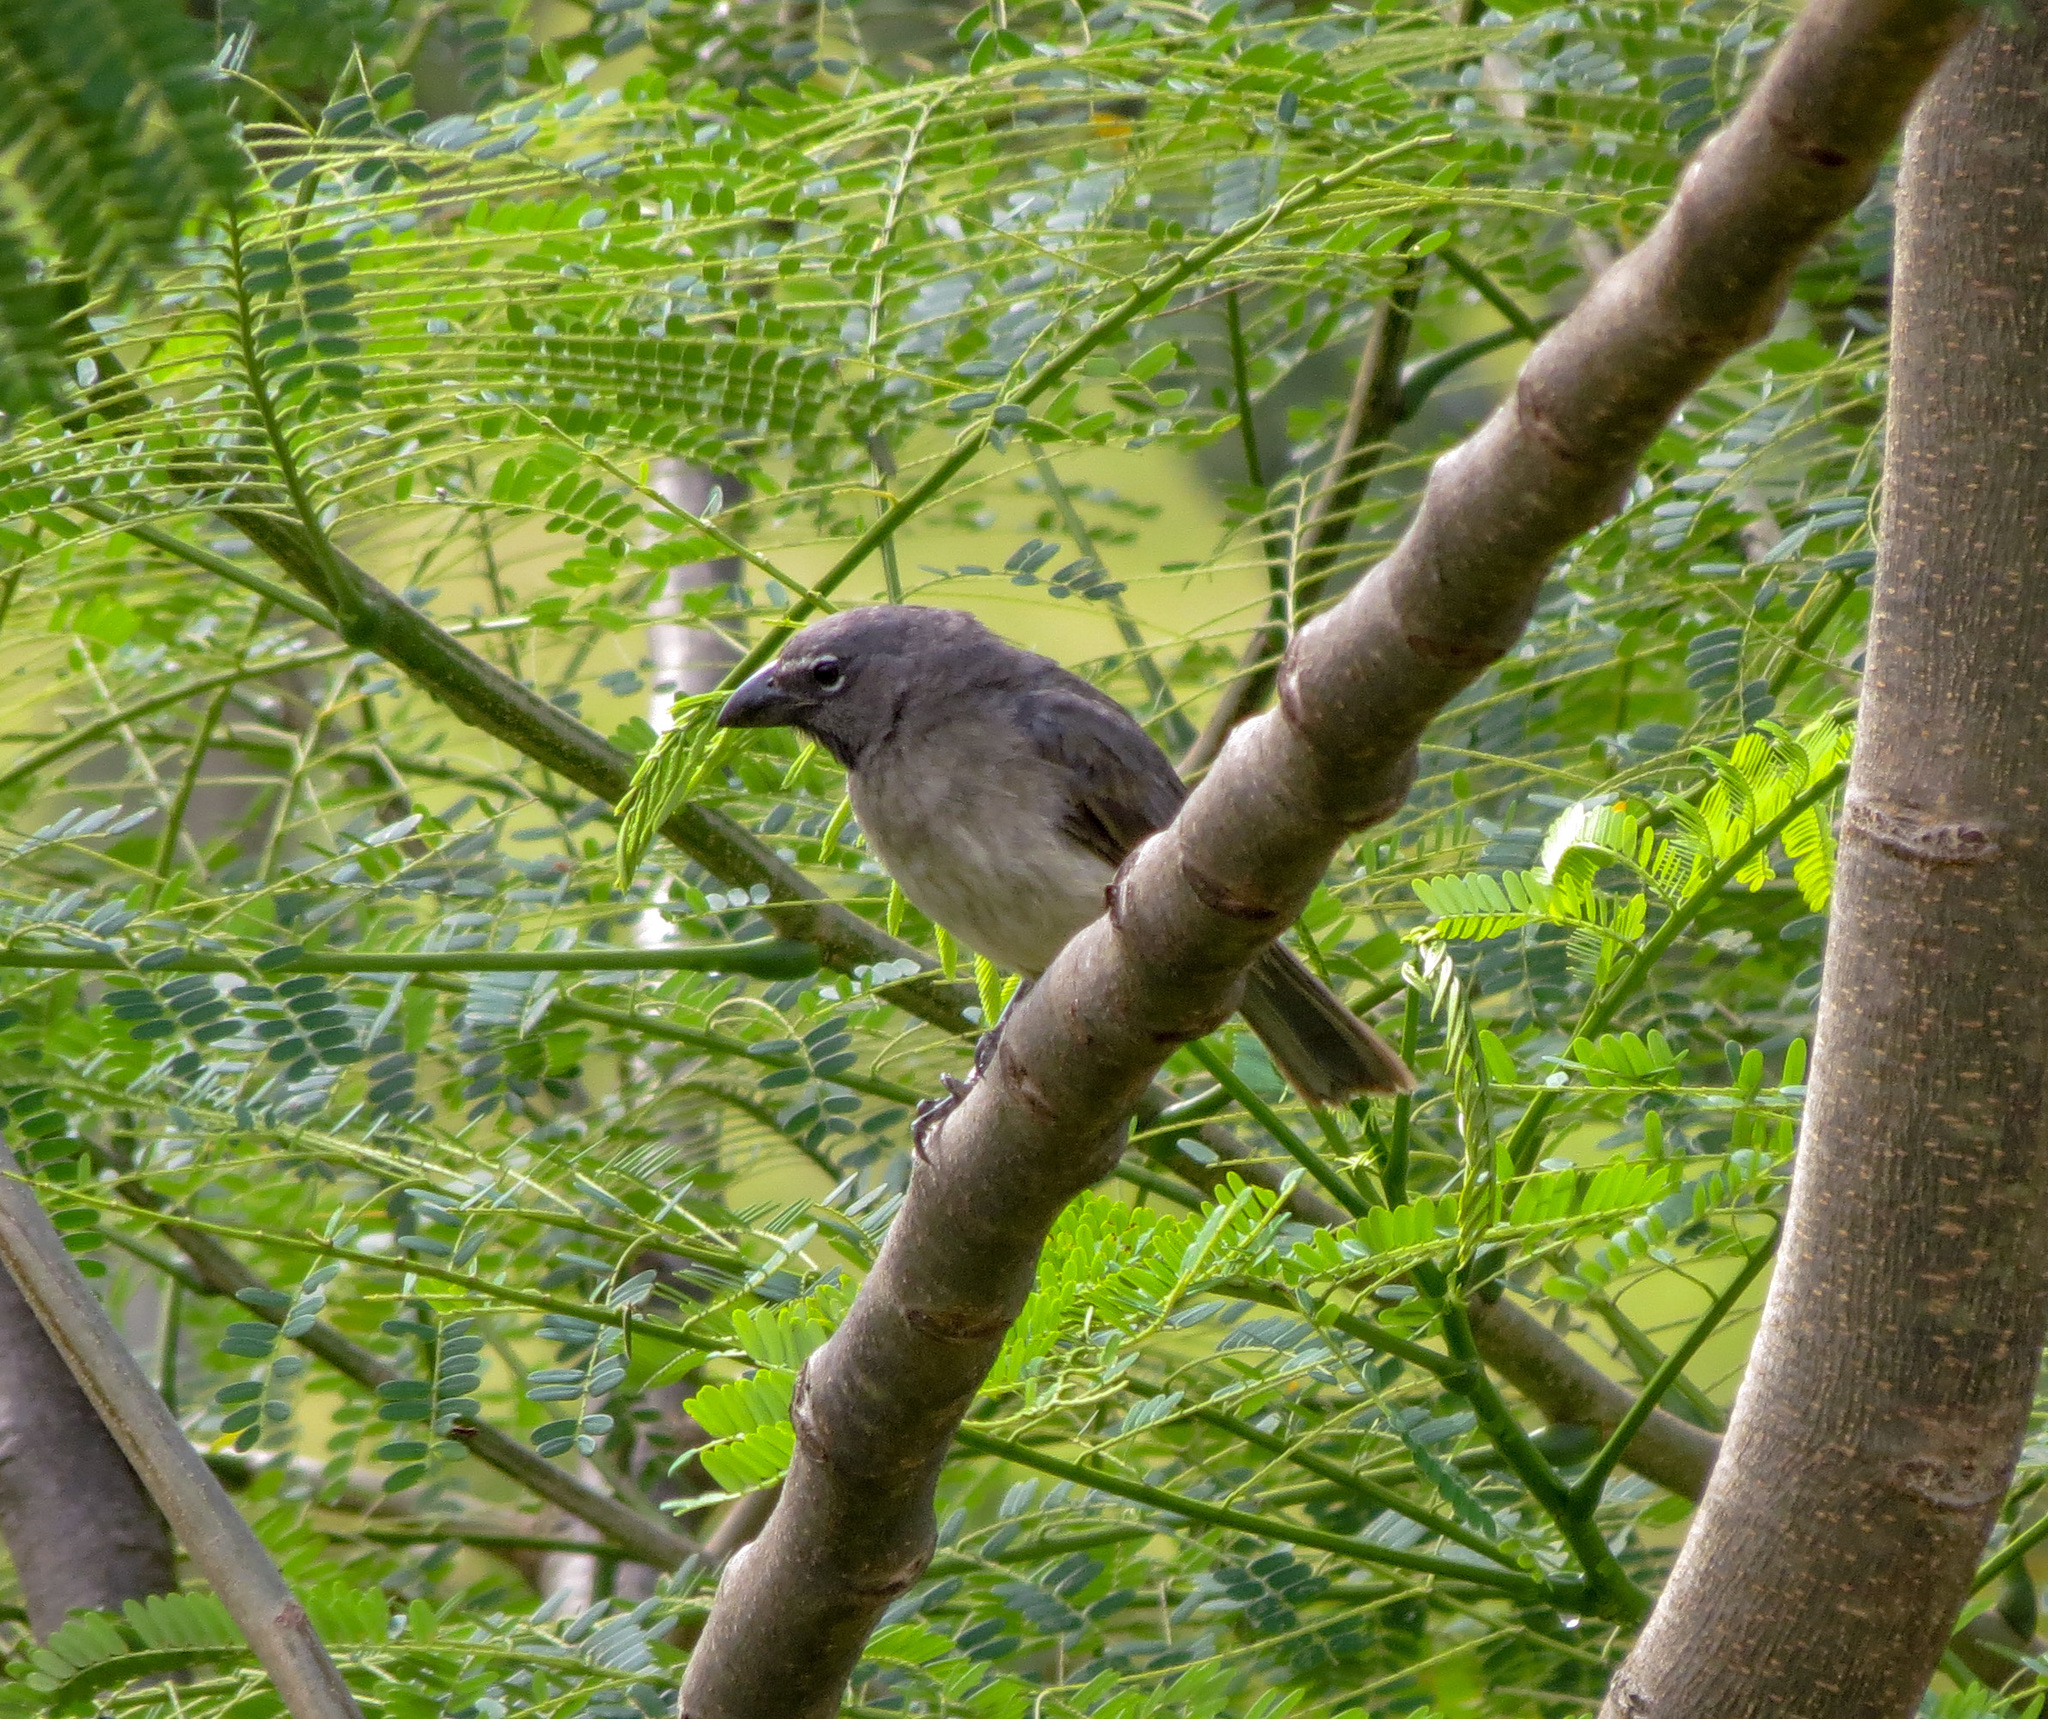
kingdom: Animalia
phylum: Chordata
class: Aves
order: Passeriformes
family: Thraupidae
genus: Saltator
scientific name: Saltator olivascens
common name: Caribbean grey saltator
